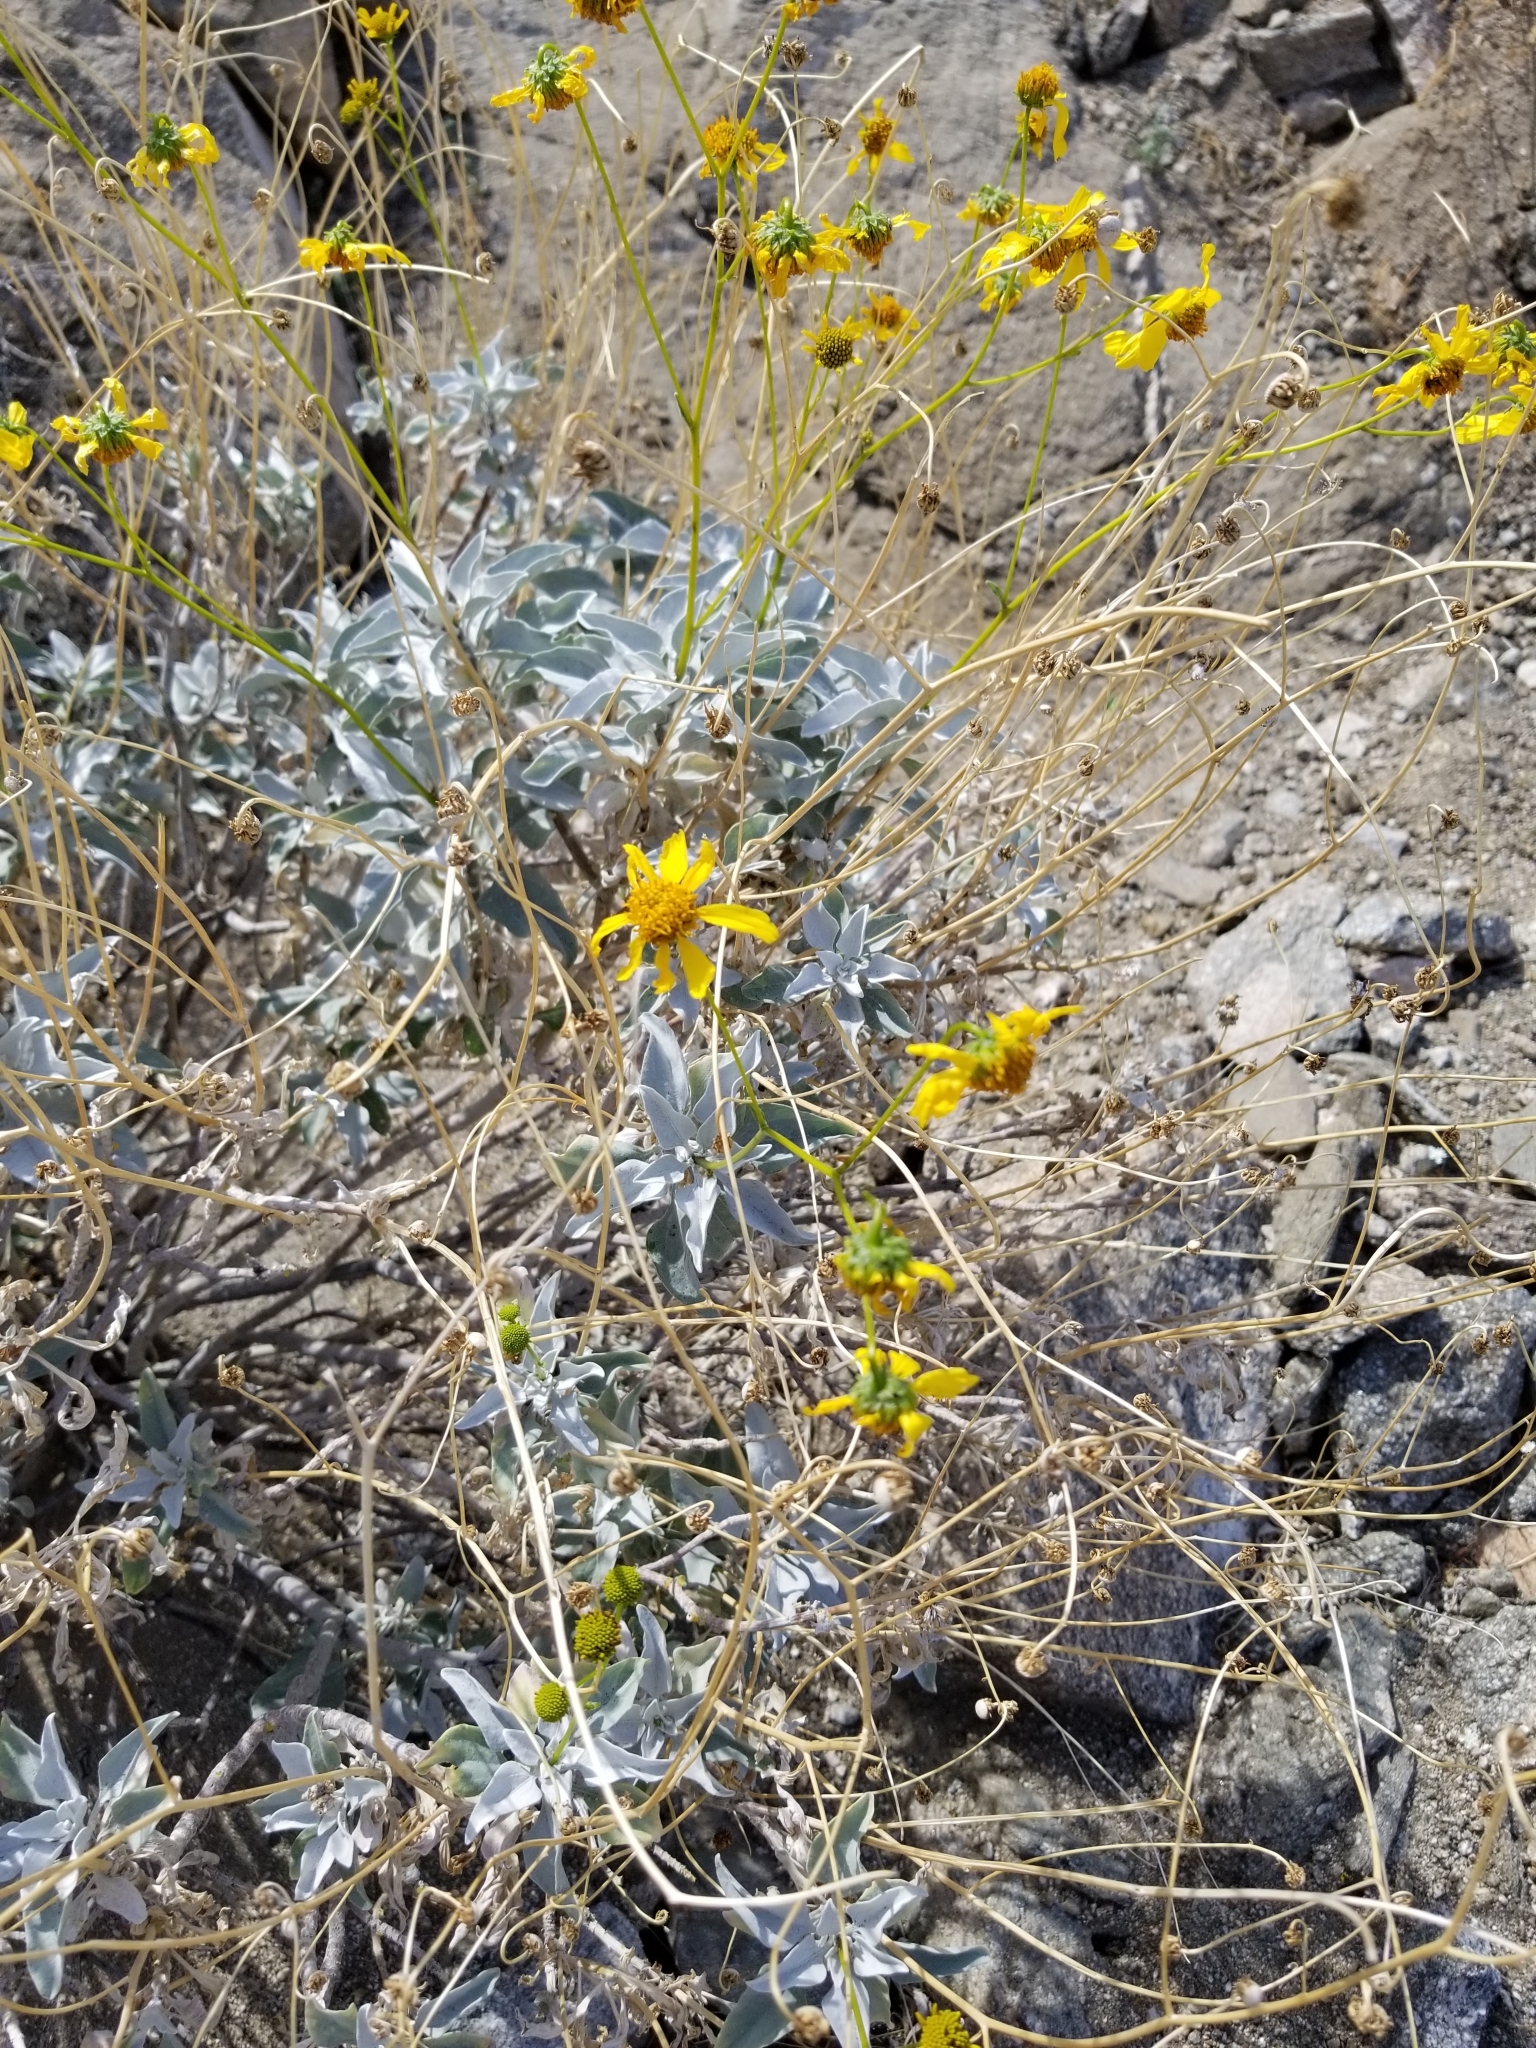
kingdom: Plantae
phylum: Tracheophyta
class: Magnoliopsida
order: Asterales
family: Asteraceae
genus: Encelia
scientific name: Encelia farinosa
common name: Brittlebush
